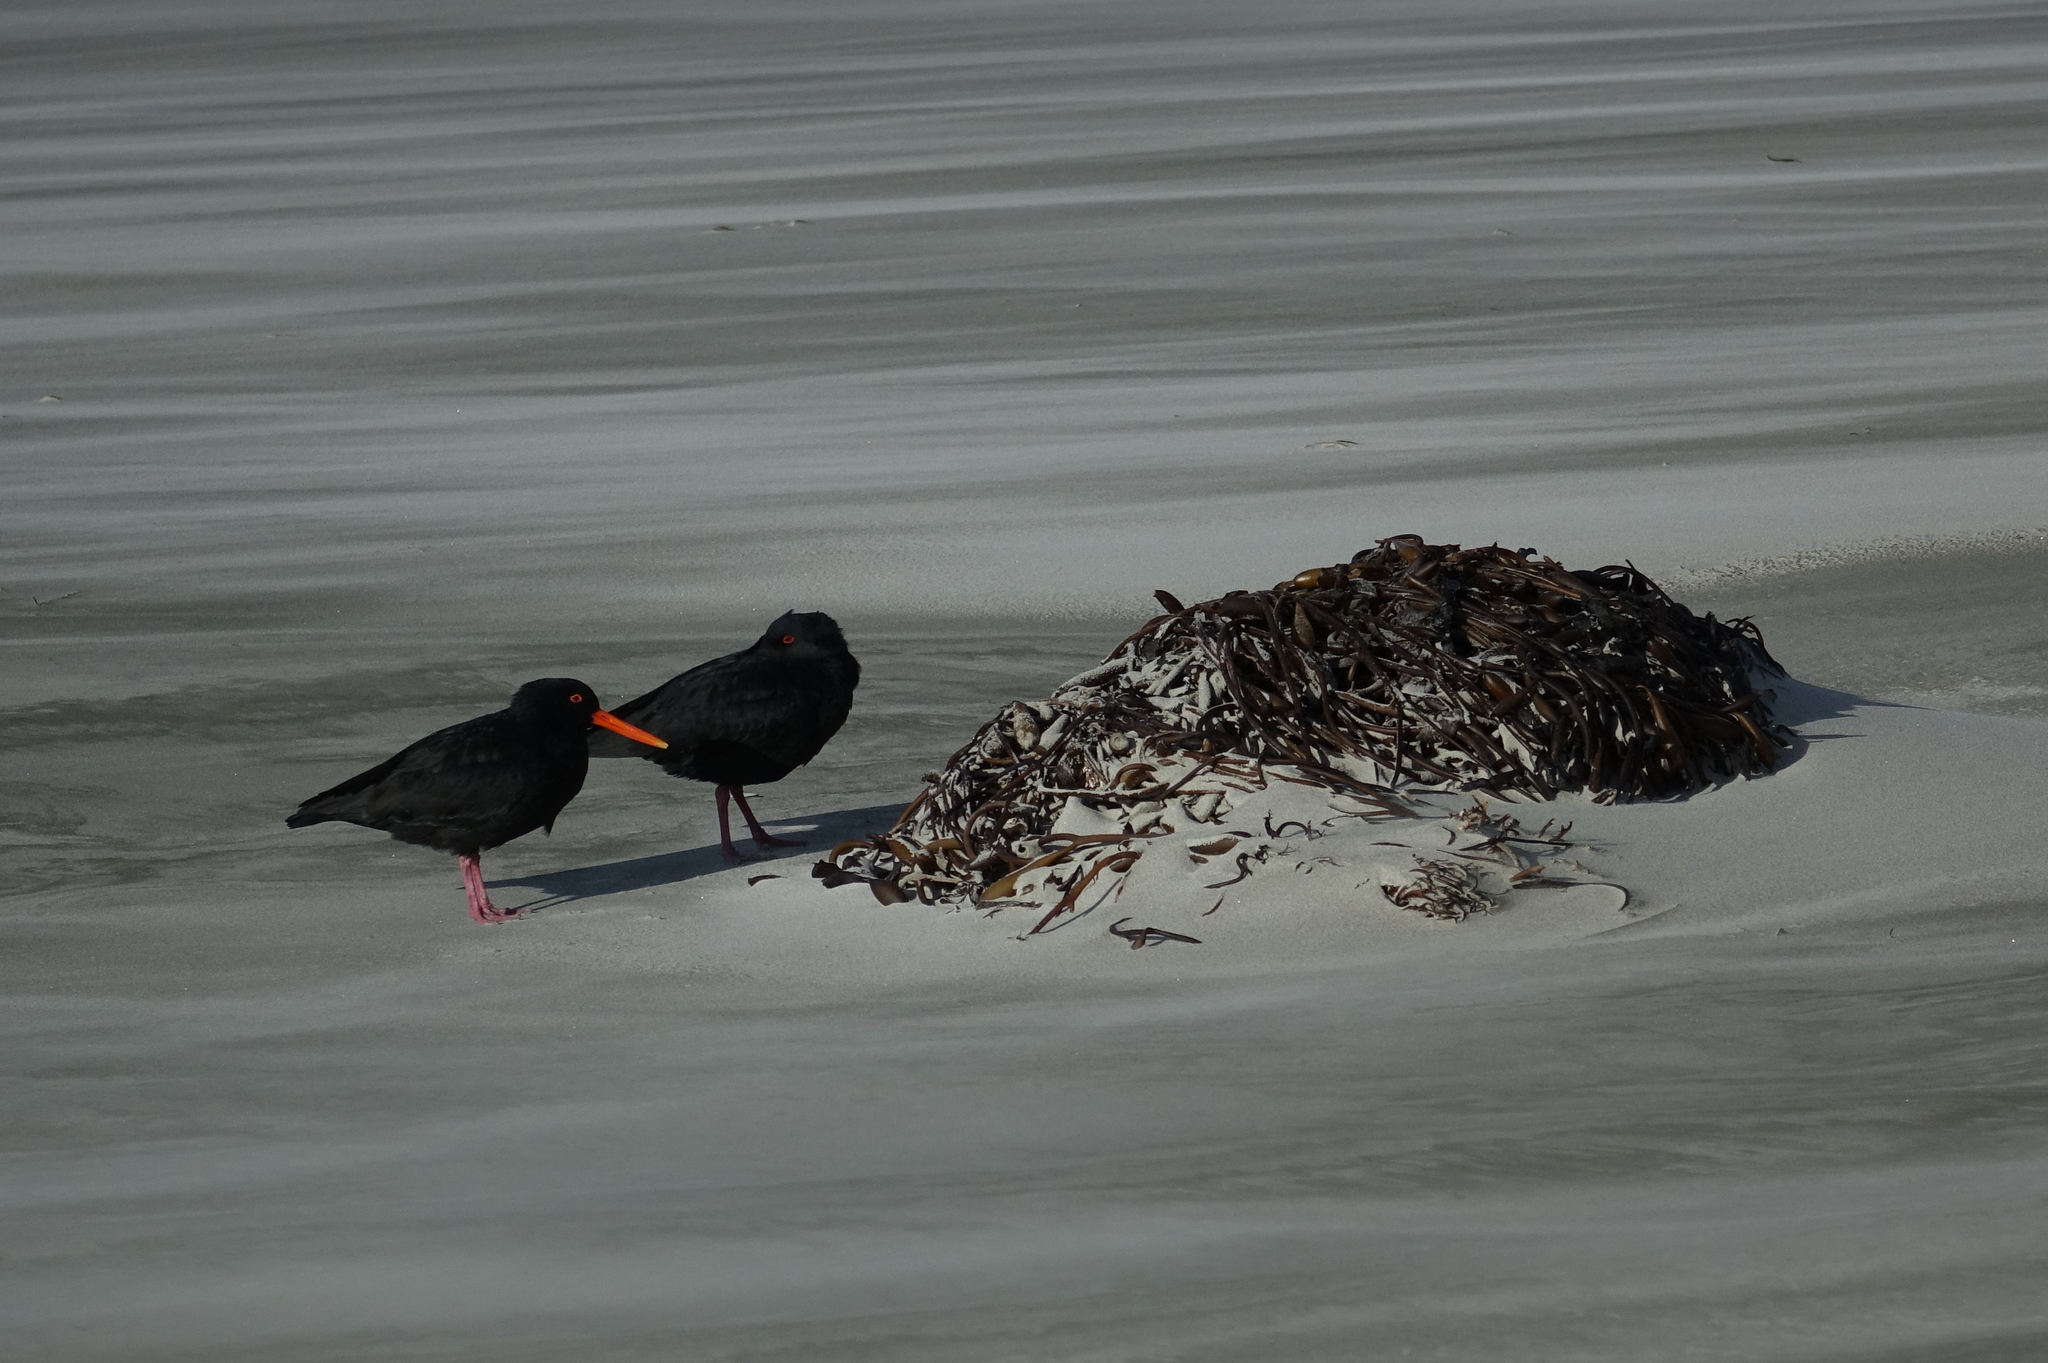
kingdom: Animalia
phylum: Chordata
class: Aves
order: Charadriiformes
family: Haematopodidae
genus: Haematopus
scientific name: Haematopus unicolor
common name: Variable oystercatcher
